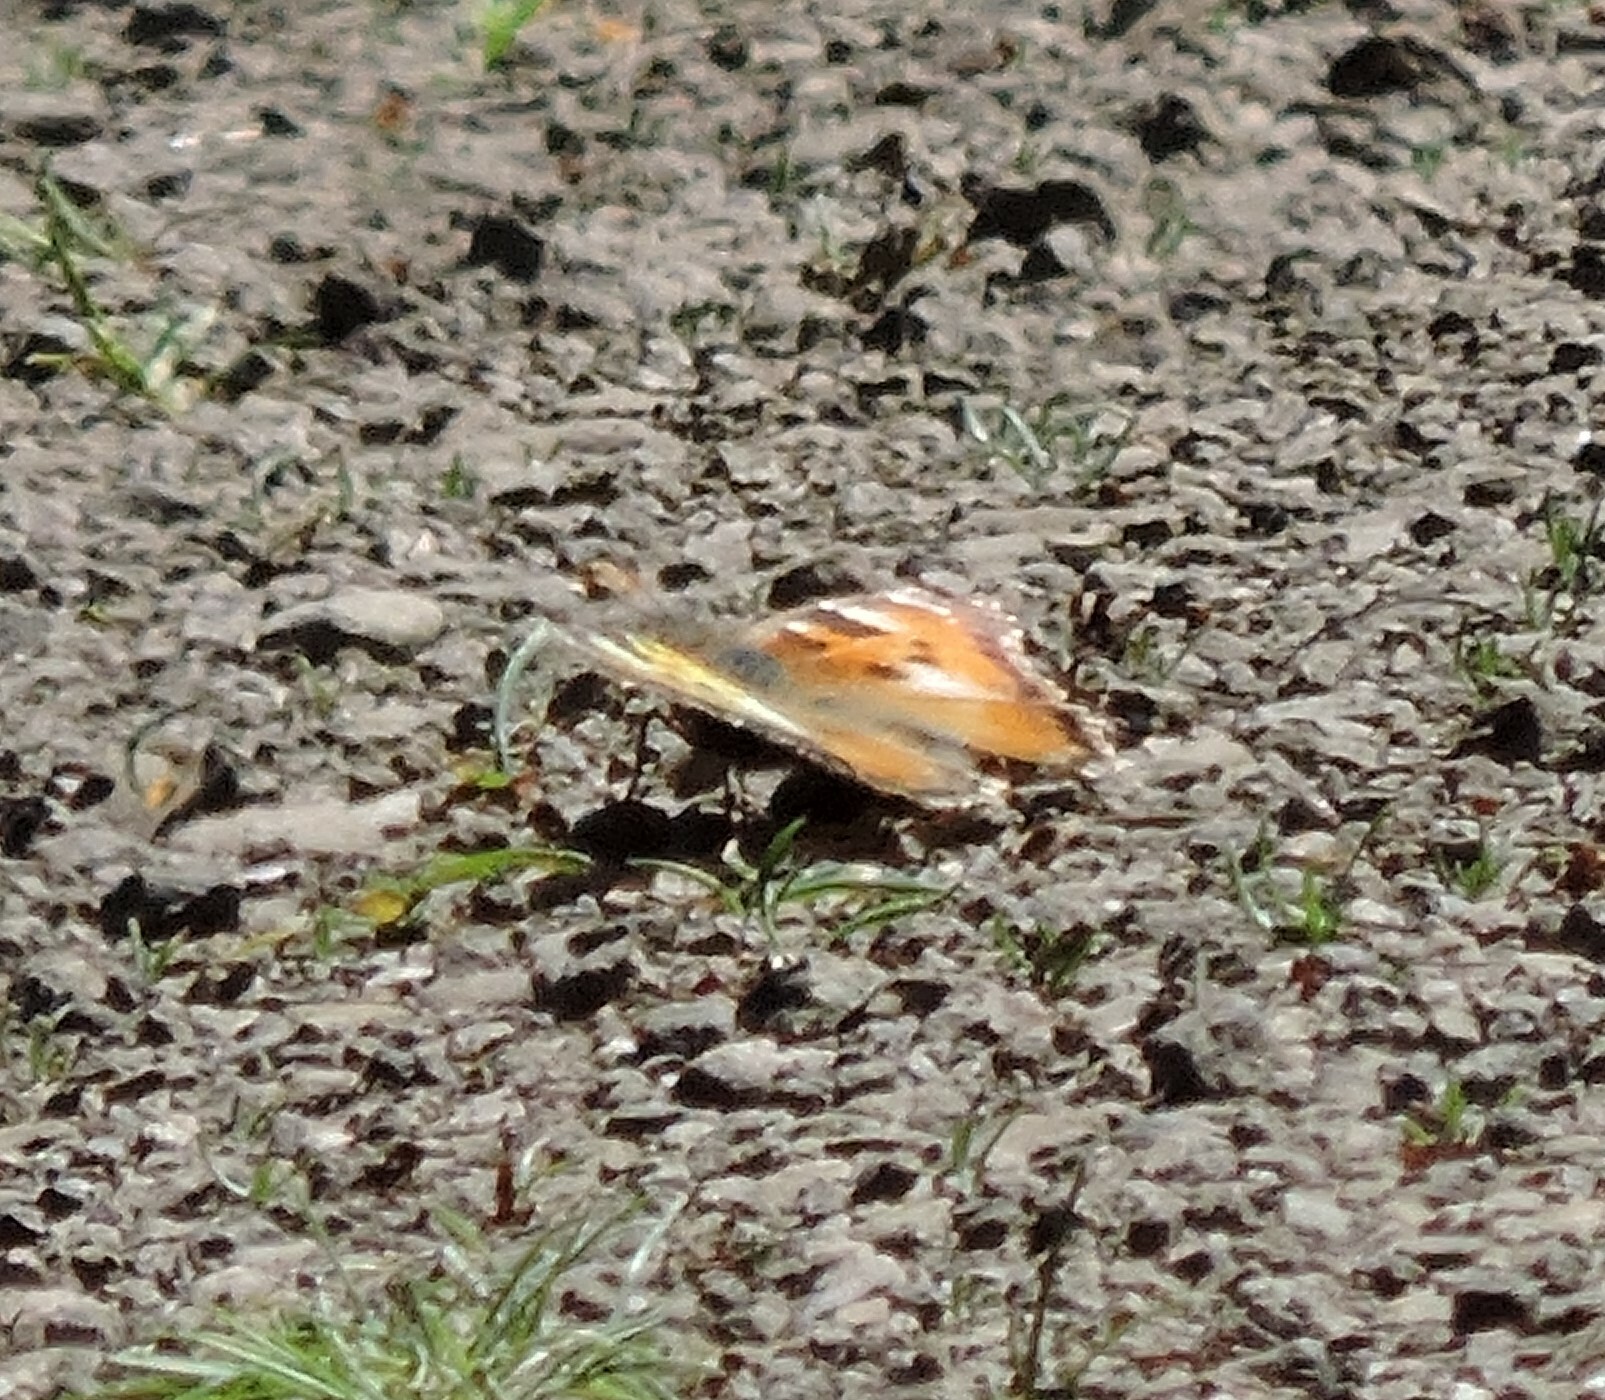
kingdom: Animalia
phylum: Arthropoda
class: Insecta
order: Lepidoptera
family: Nymphalidae
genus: Nymphalis
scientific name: Nymphalis californica
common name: California tortoiseshell
